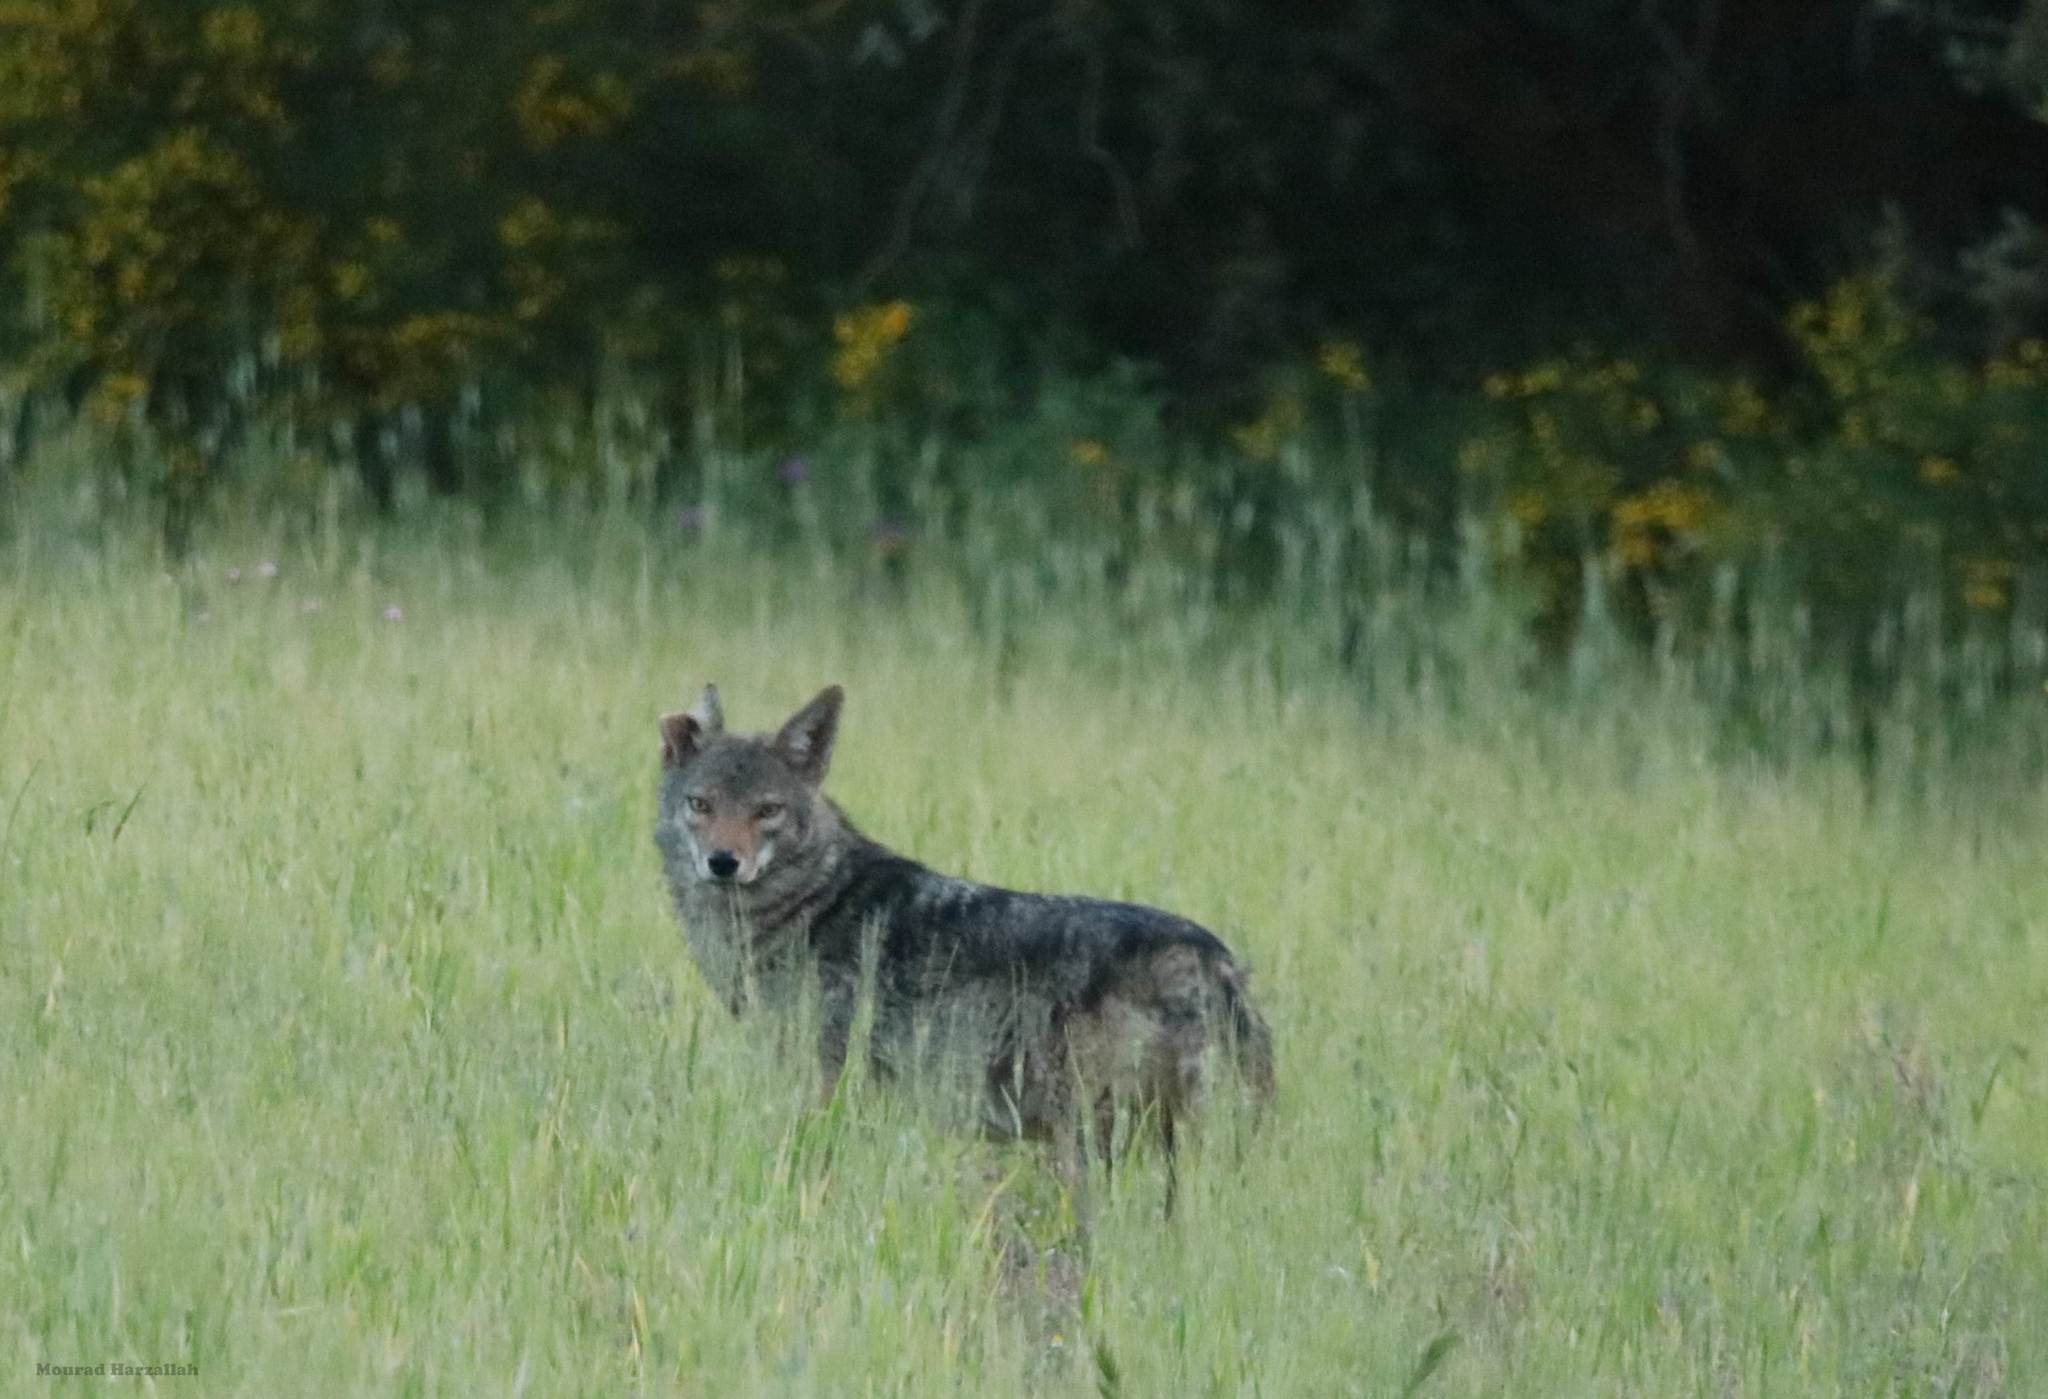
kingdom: Animalia
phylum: Chordata
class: Mammalia
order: Carnivora
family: Canidae
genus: Canis
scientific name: Canis lupaster
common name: African golden wolf
